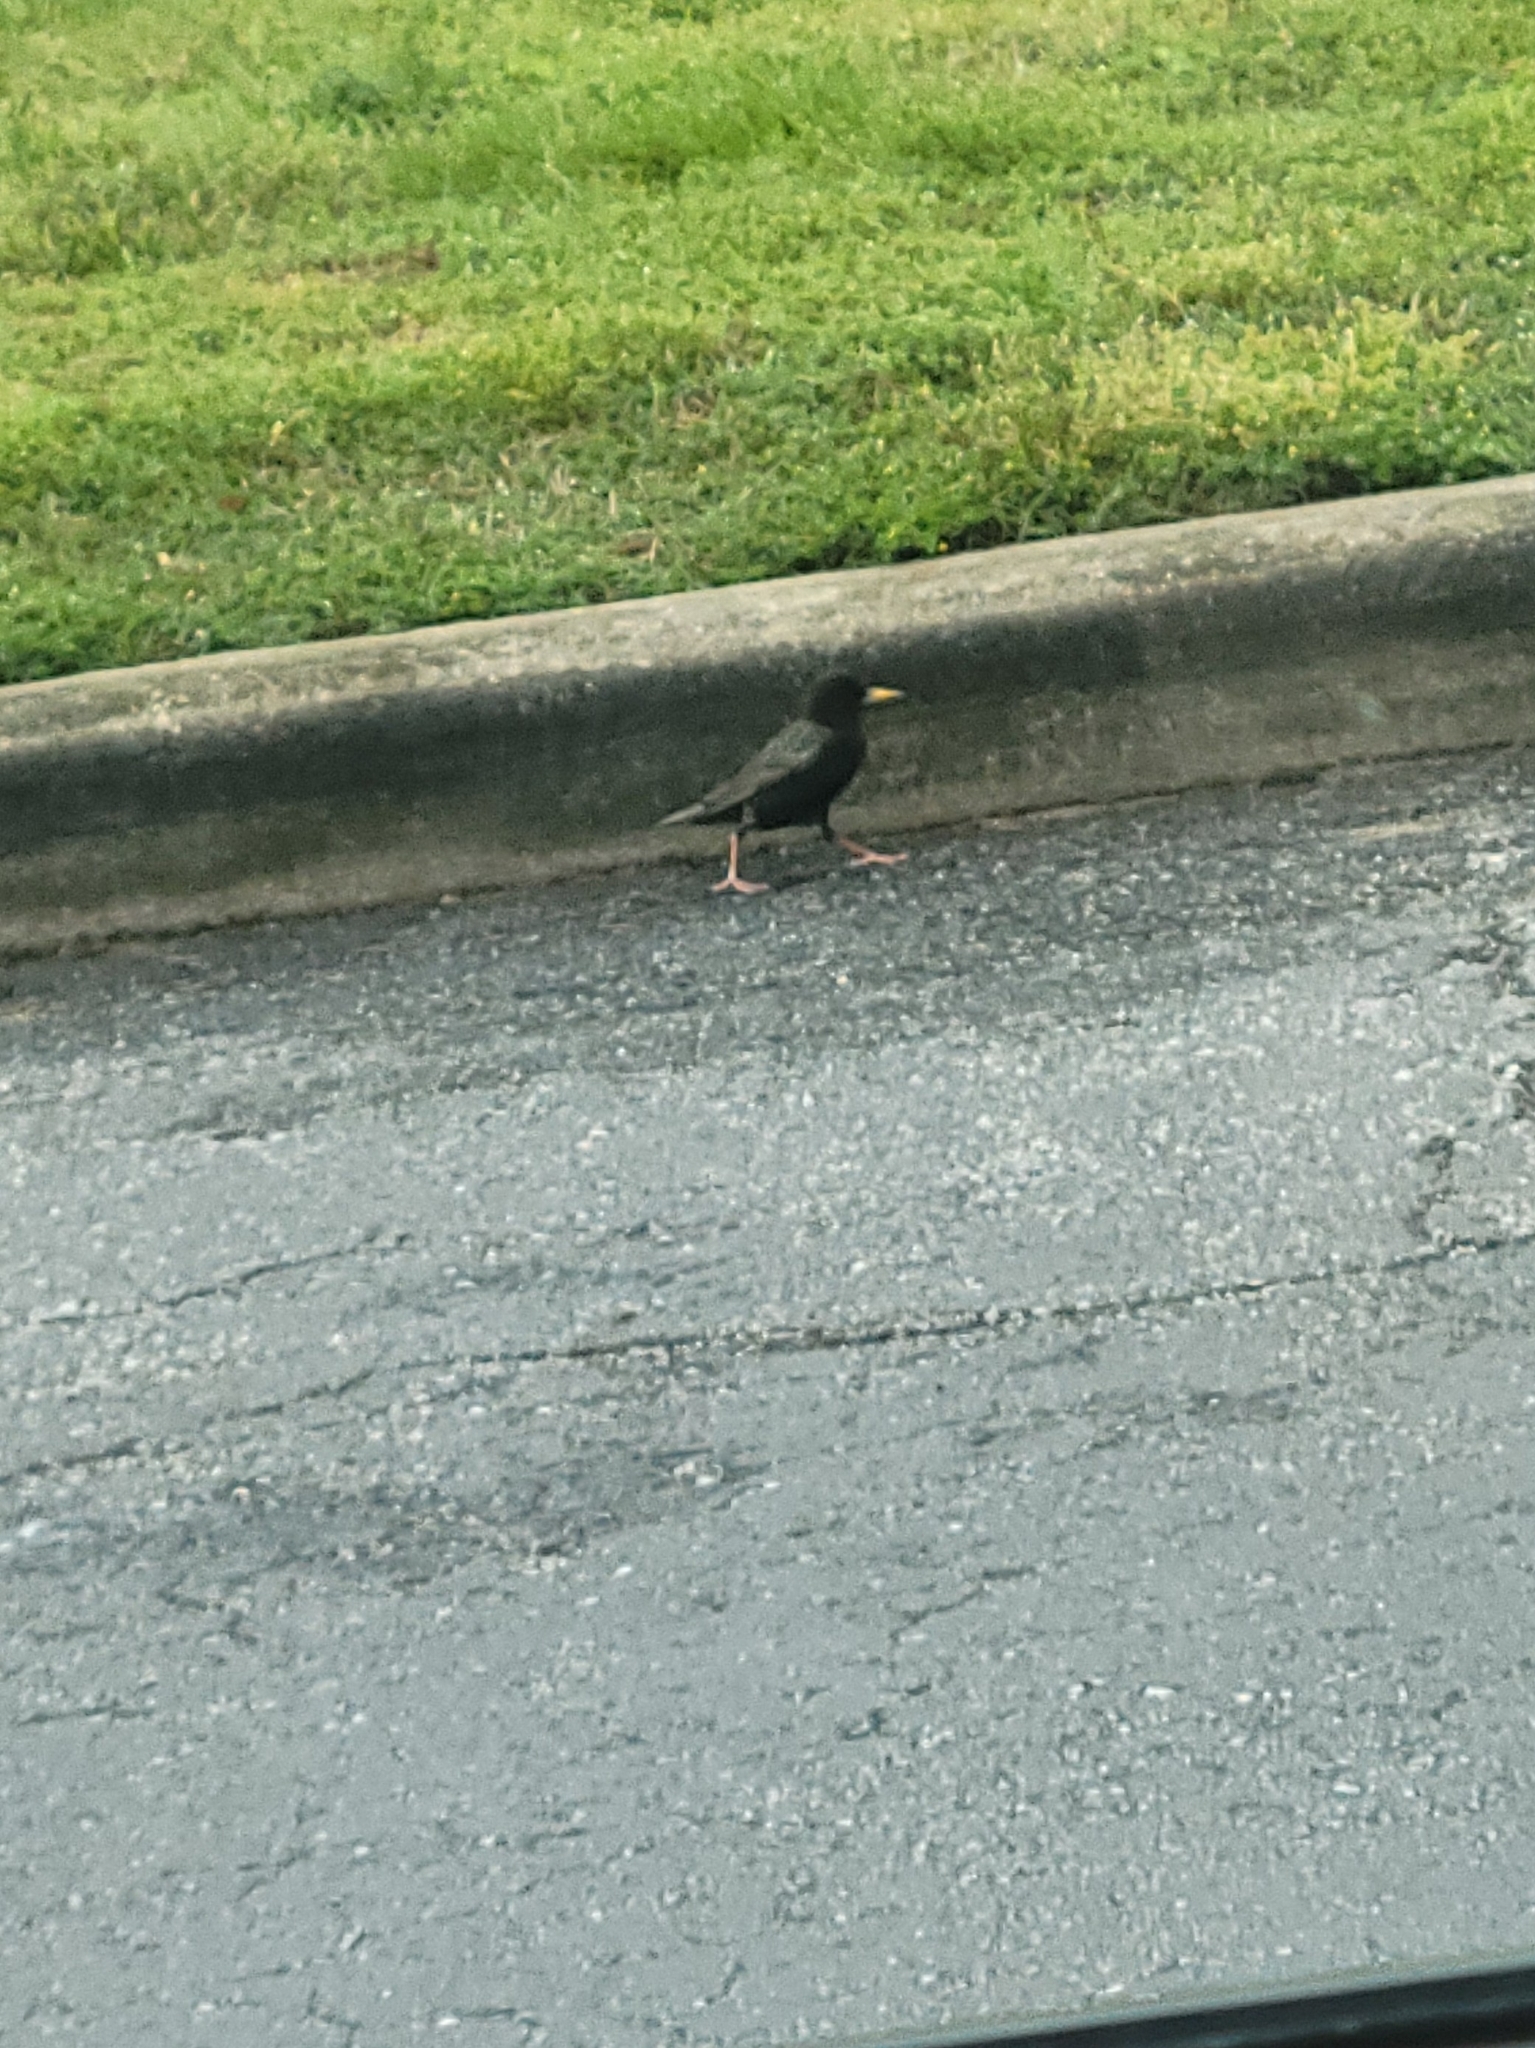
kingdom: Animalia
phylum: Chordata
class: Aves
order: Passeriformes
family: Sturnidae
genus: Sturnus
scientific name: Sturnus vulgaris
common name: Common starling
